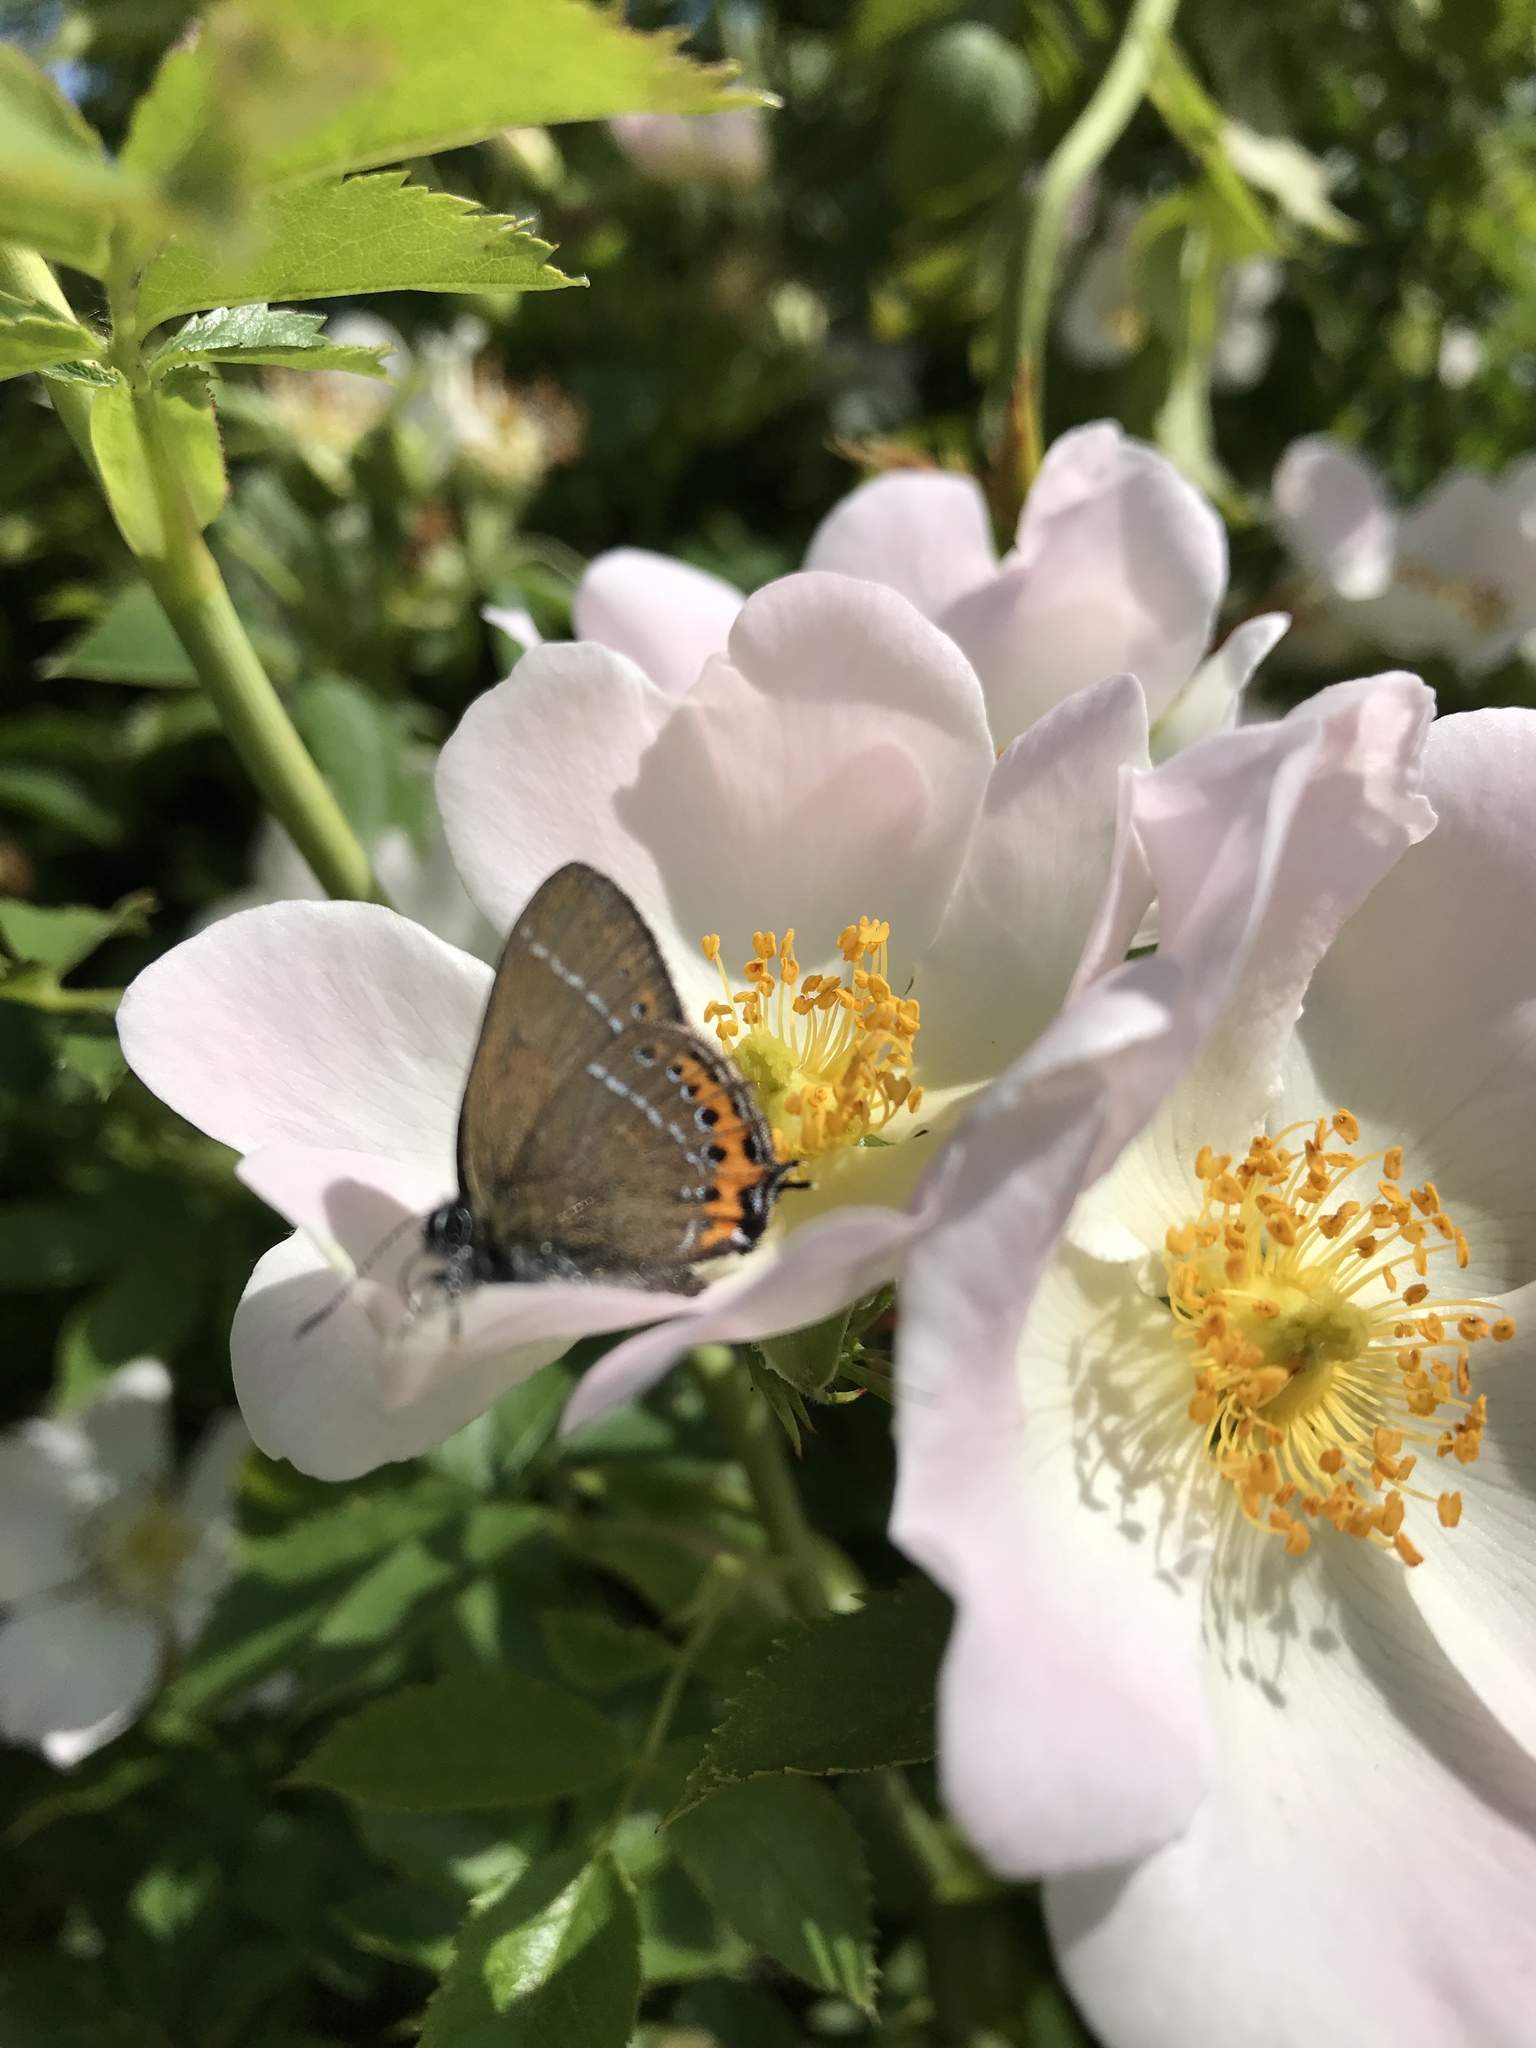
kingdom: Animalia
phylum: Arthropoda
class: Insecta
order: Lepidoptera
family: Lycaenidae
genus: Fixsenia
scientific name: Fixsenia pruni
